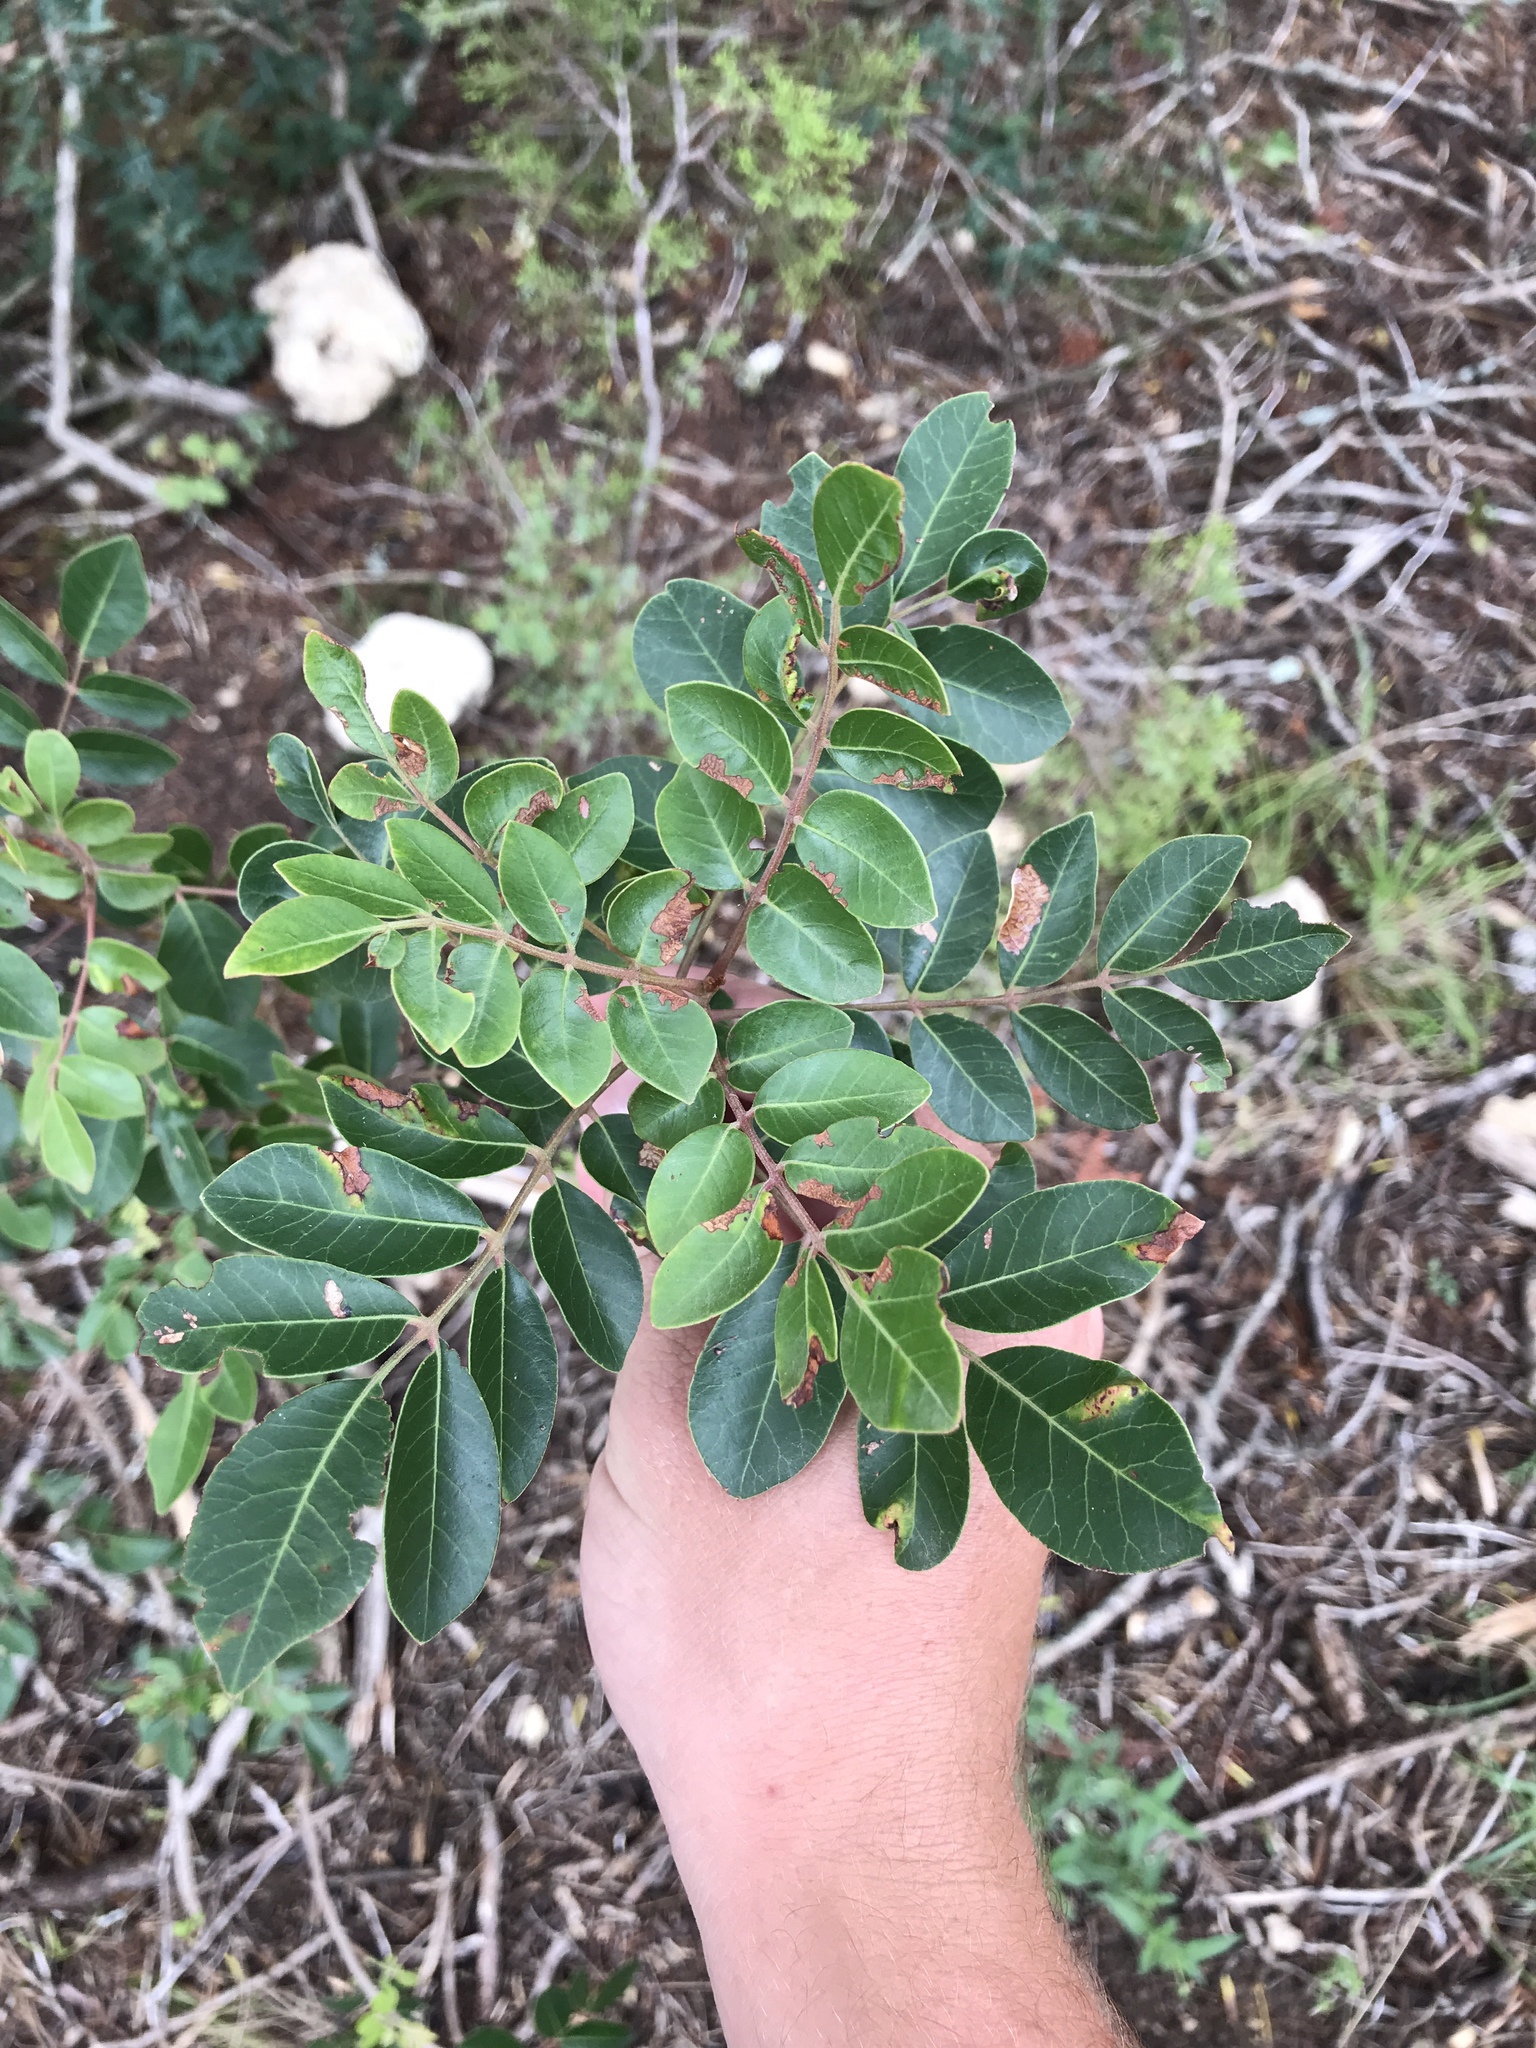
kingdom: Plantae
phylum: Tracheophyta
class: Magnoliopsida
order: Sapindales
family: Anacardiaceae
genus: Rhus
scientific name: Rhus virens
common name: Evergreen sumac
